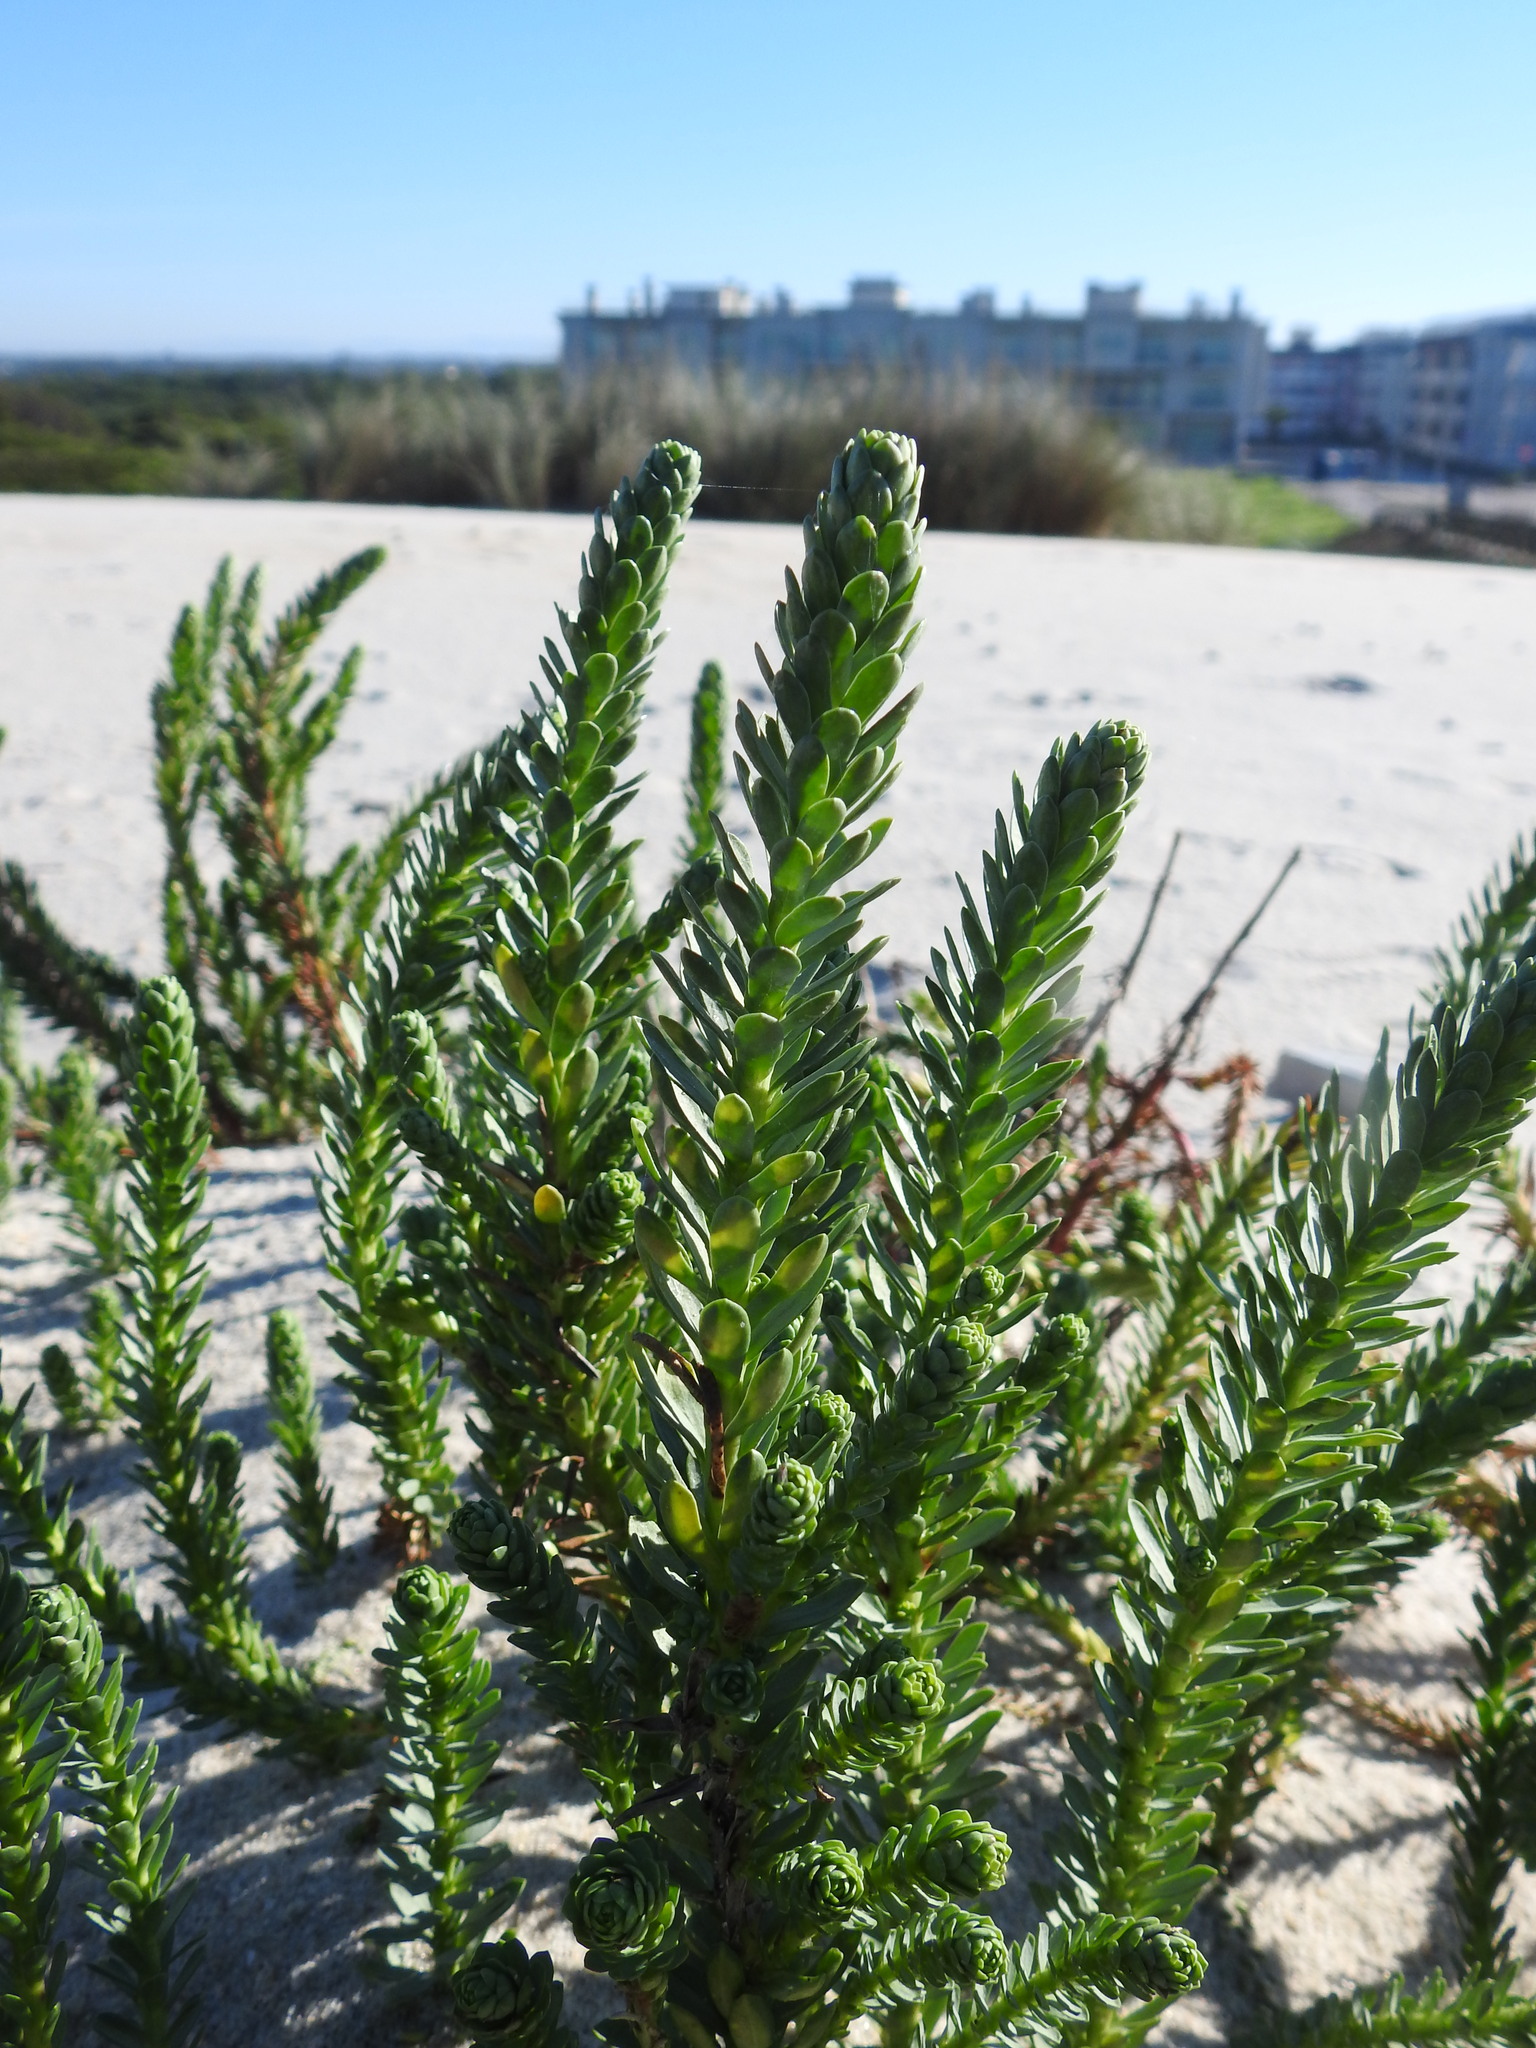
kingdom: Plantae
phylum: Tracheophyta
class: Magnoliopsida
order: Malpighiales
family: Euphorbiaceae
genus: Euphorbia
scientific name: Euphorbia paralias
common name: Sea spurge
